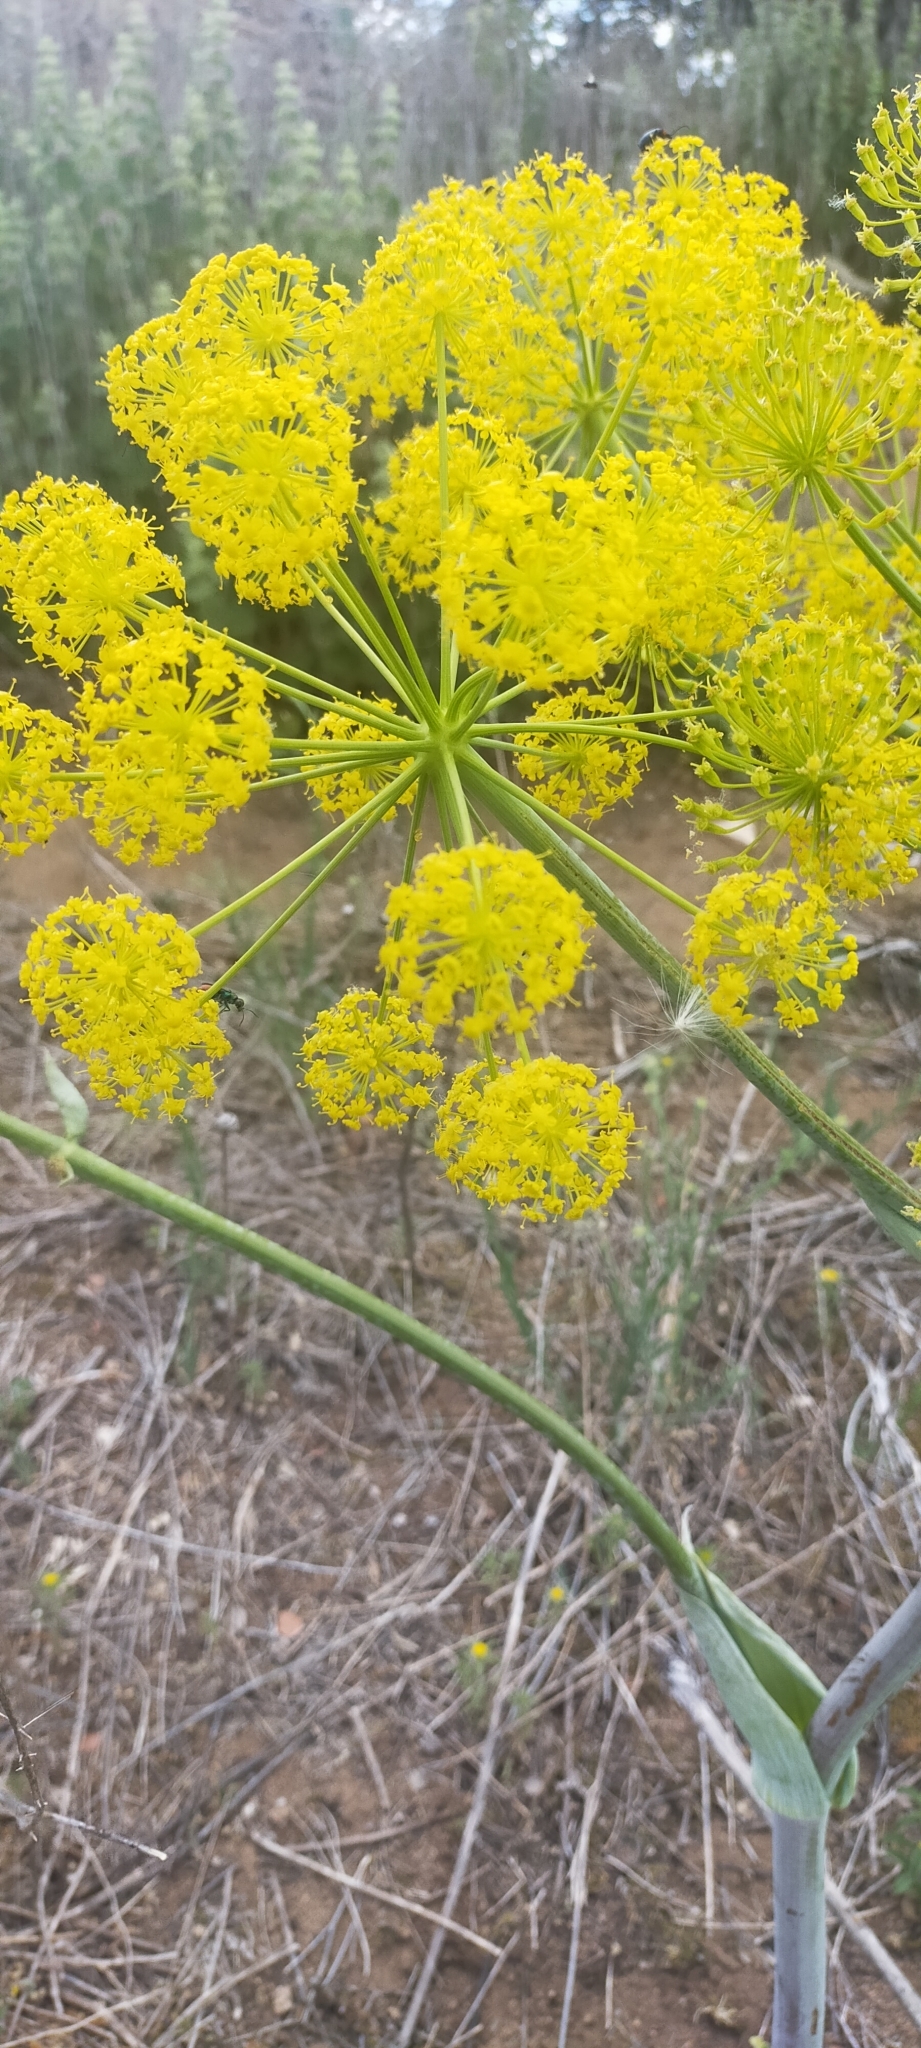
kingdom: Plantae
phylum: Tracheophyta
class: Magnoliopsida
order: Apiales
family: Apiaceae
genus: Thapsia
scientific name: Thapsia villosa
